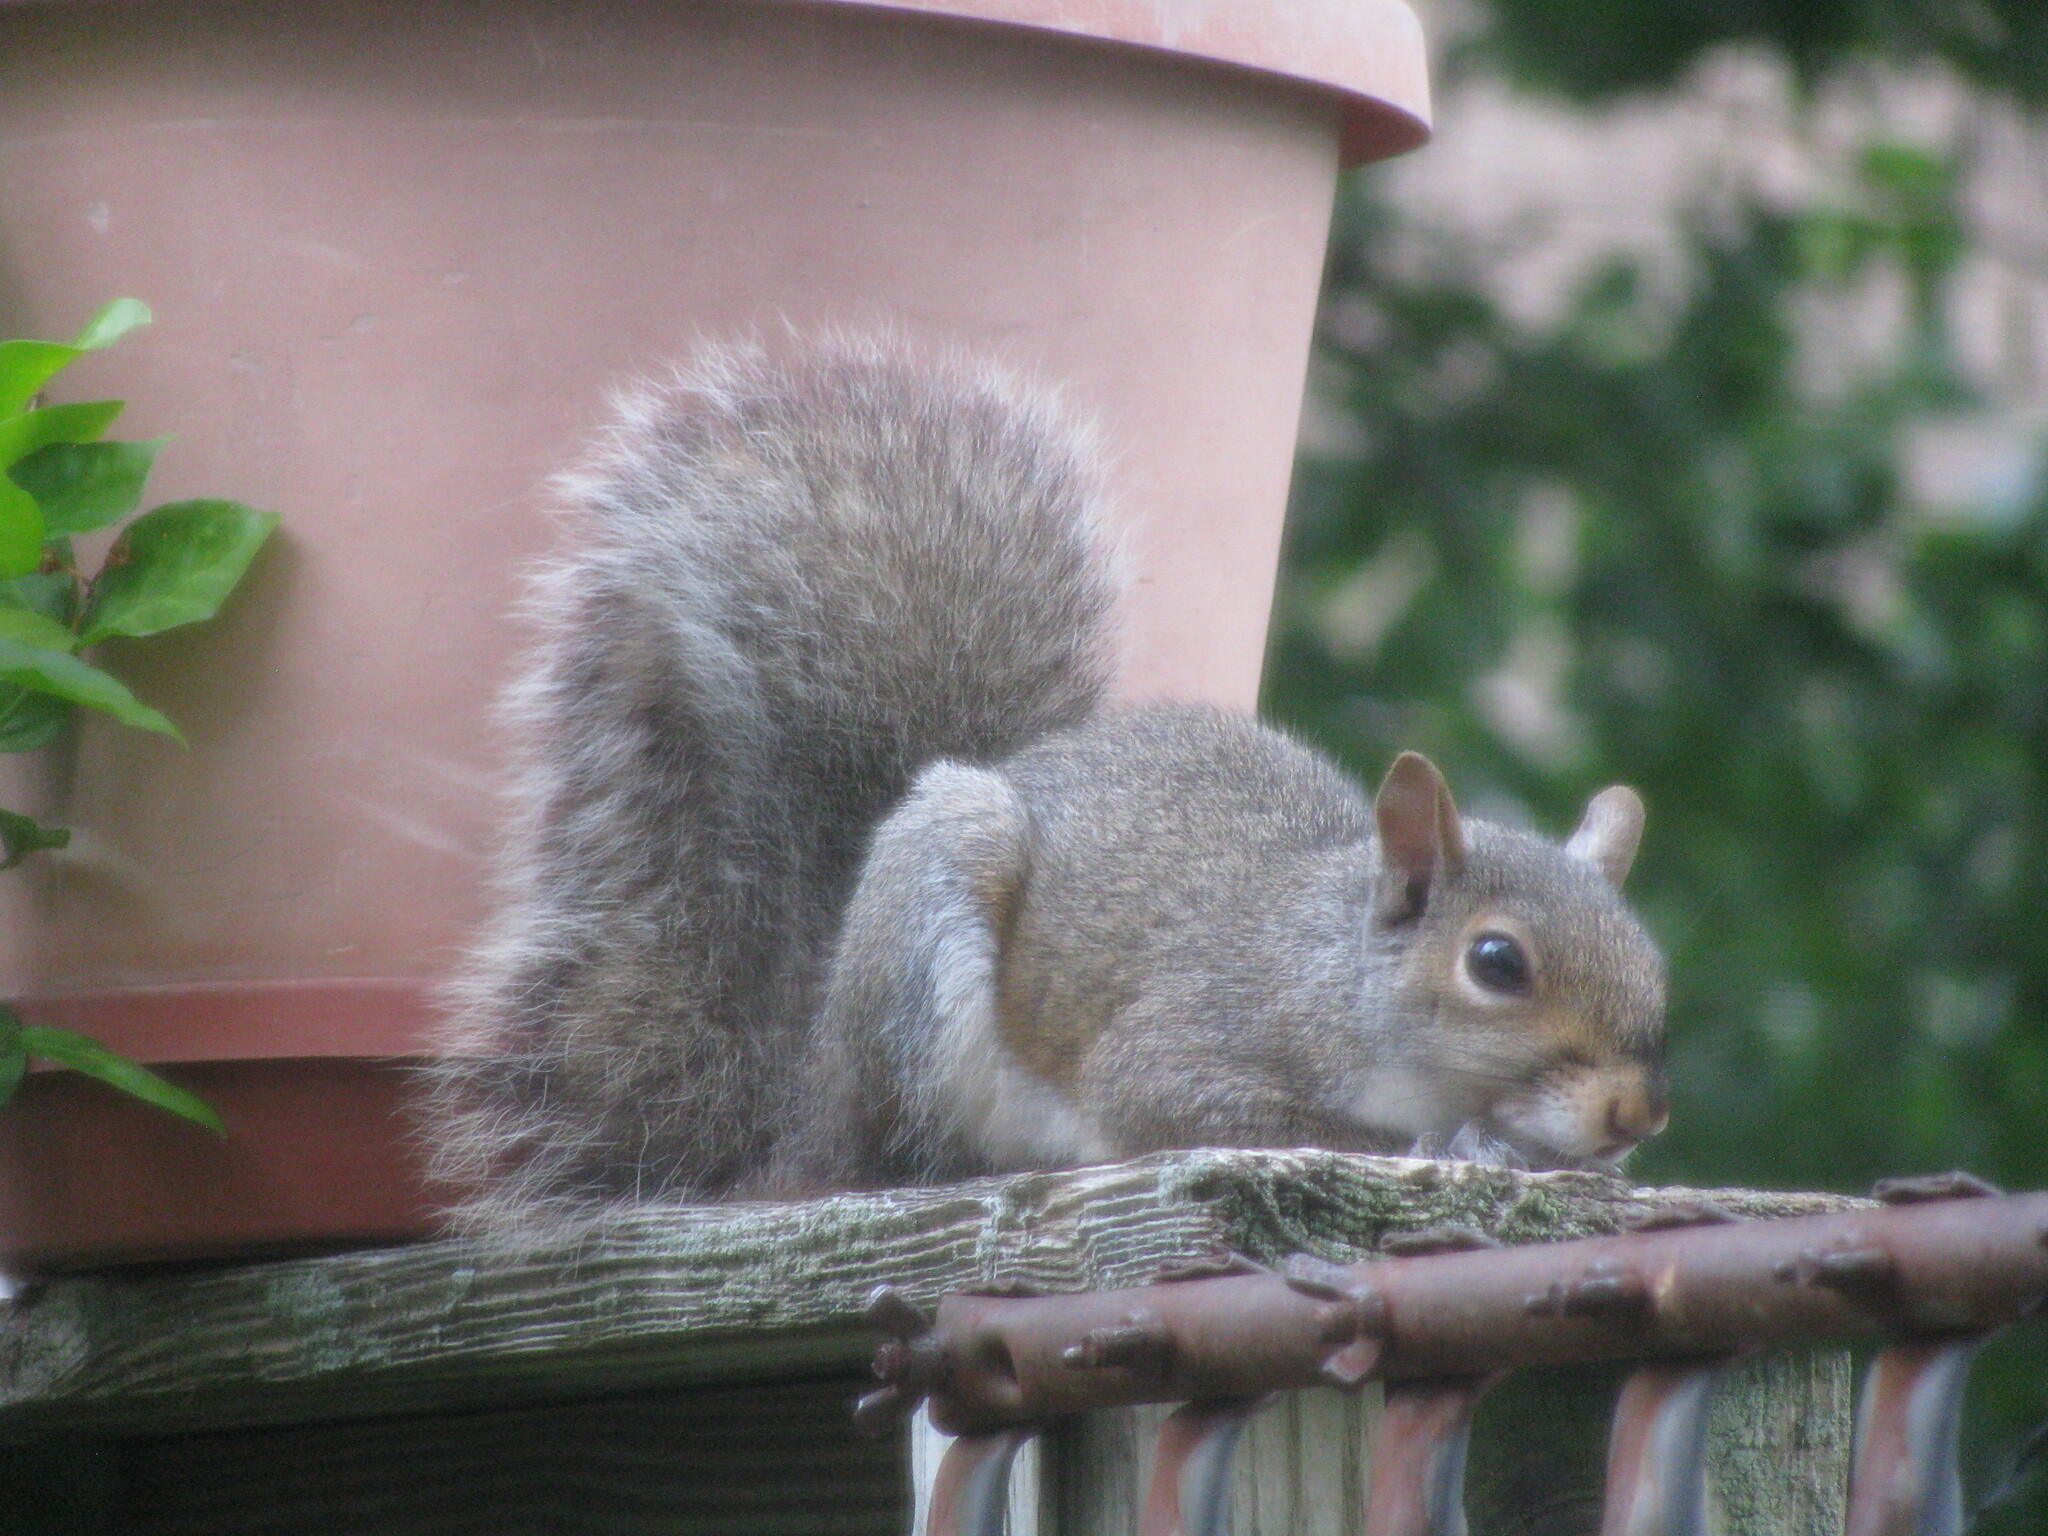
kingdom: Animalia
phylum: Chordata
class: Mammalia
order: Rodentia
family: Sciuridae
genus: Sciurus
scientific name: Sciurus carolinensis
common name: Eastern gray squirrel
